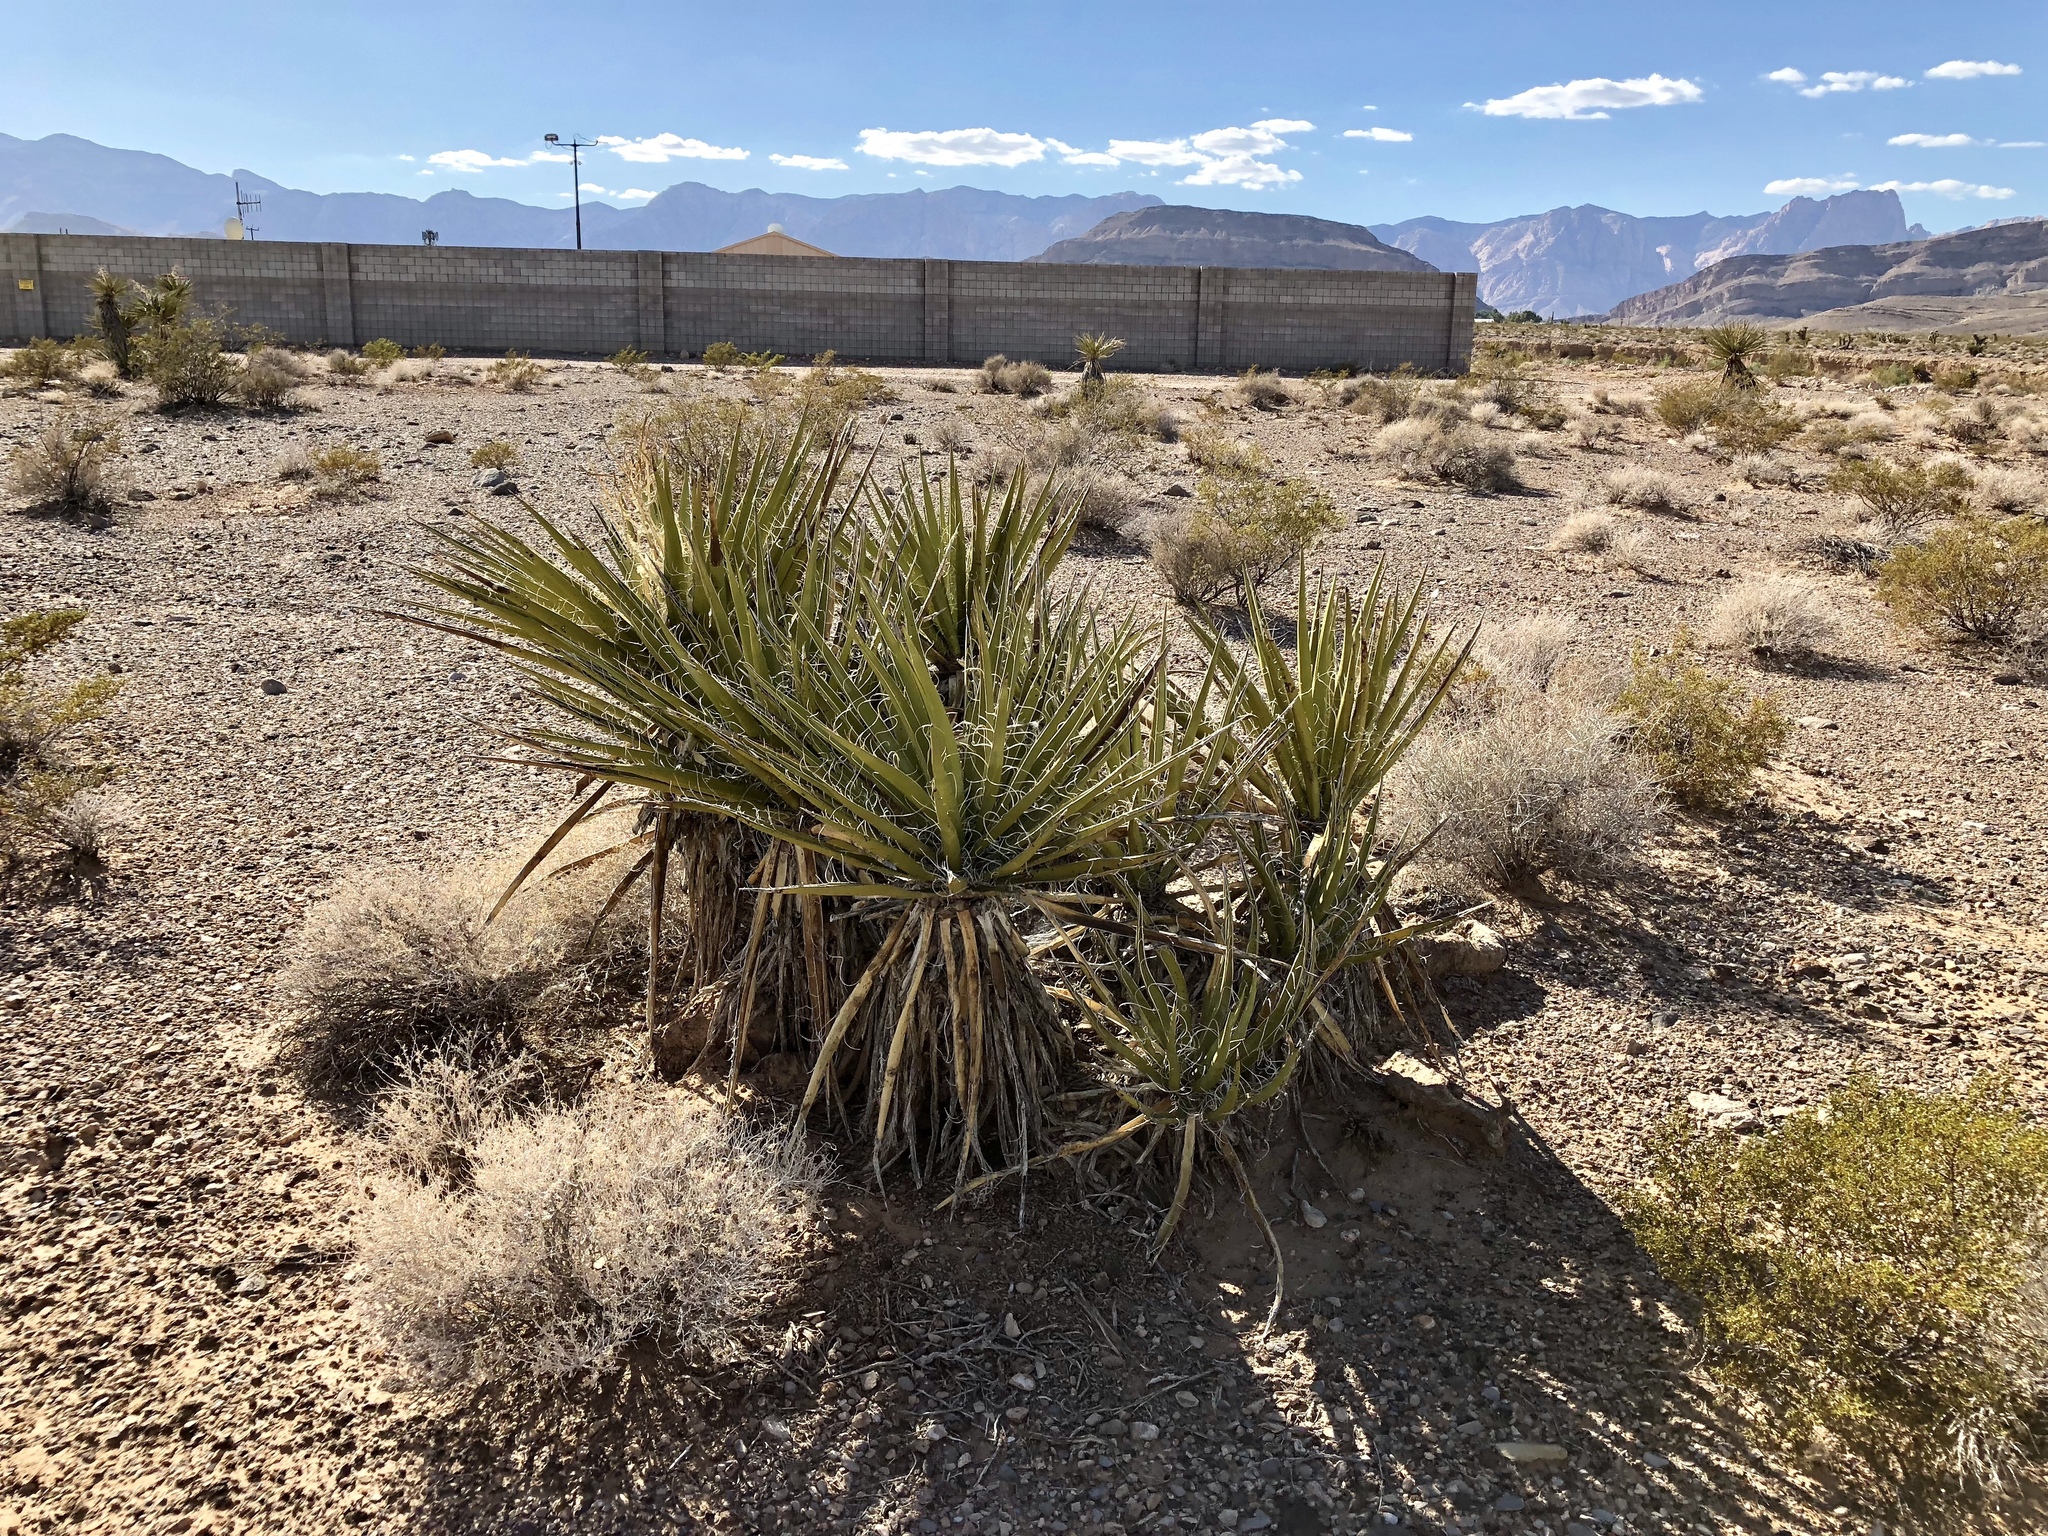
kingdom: Plantae
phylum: Tracheophyta
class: Liliopsida
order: Asparagales
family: Asparagaceae
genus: Yucca
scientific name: Yucca schidigera
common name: Mojave yucca
